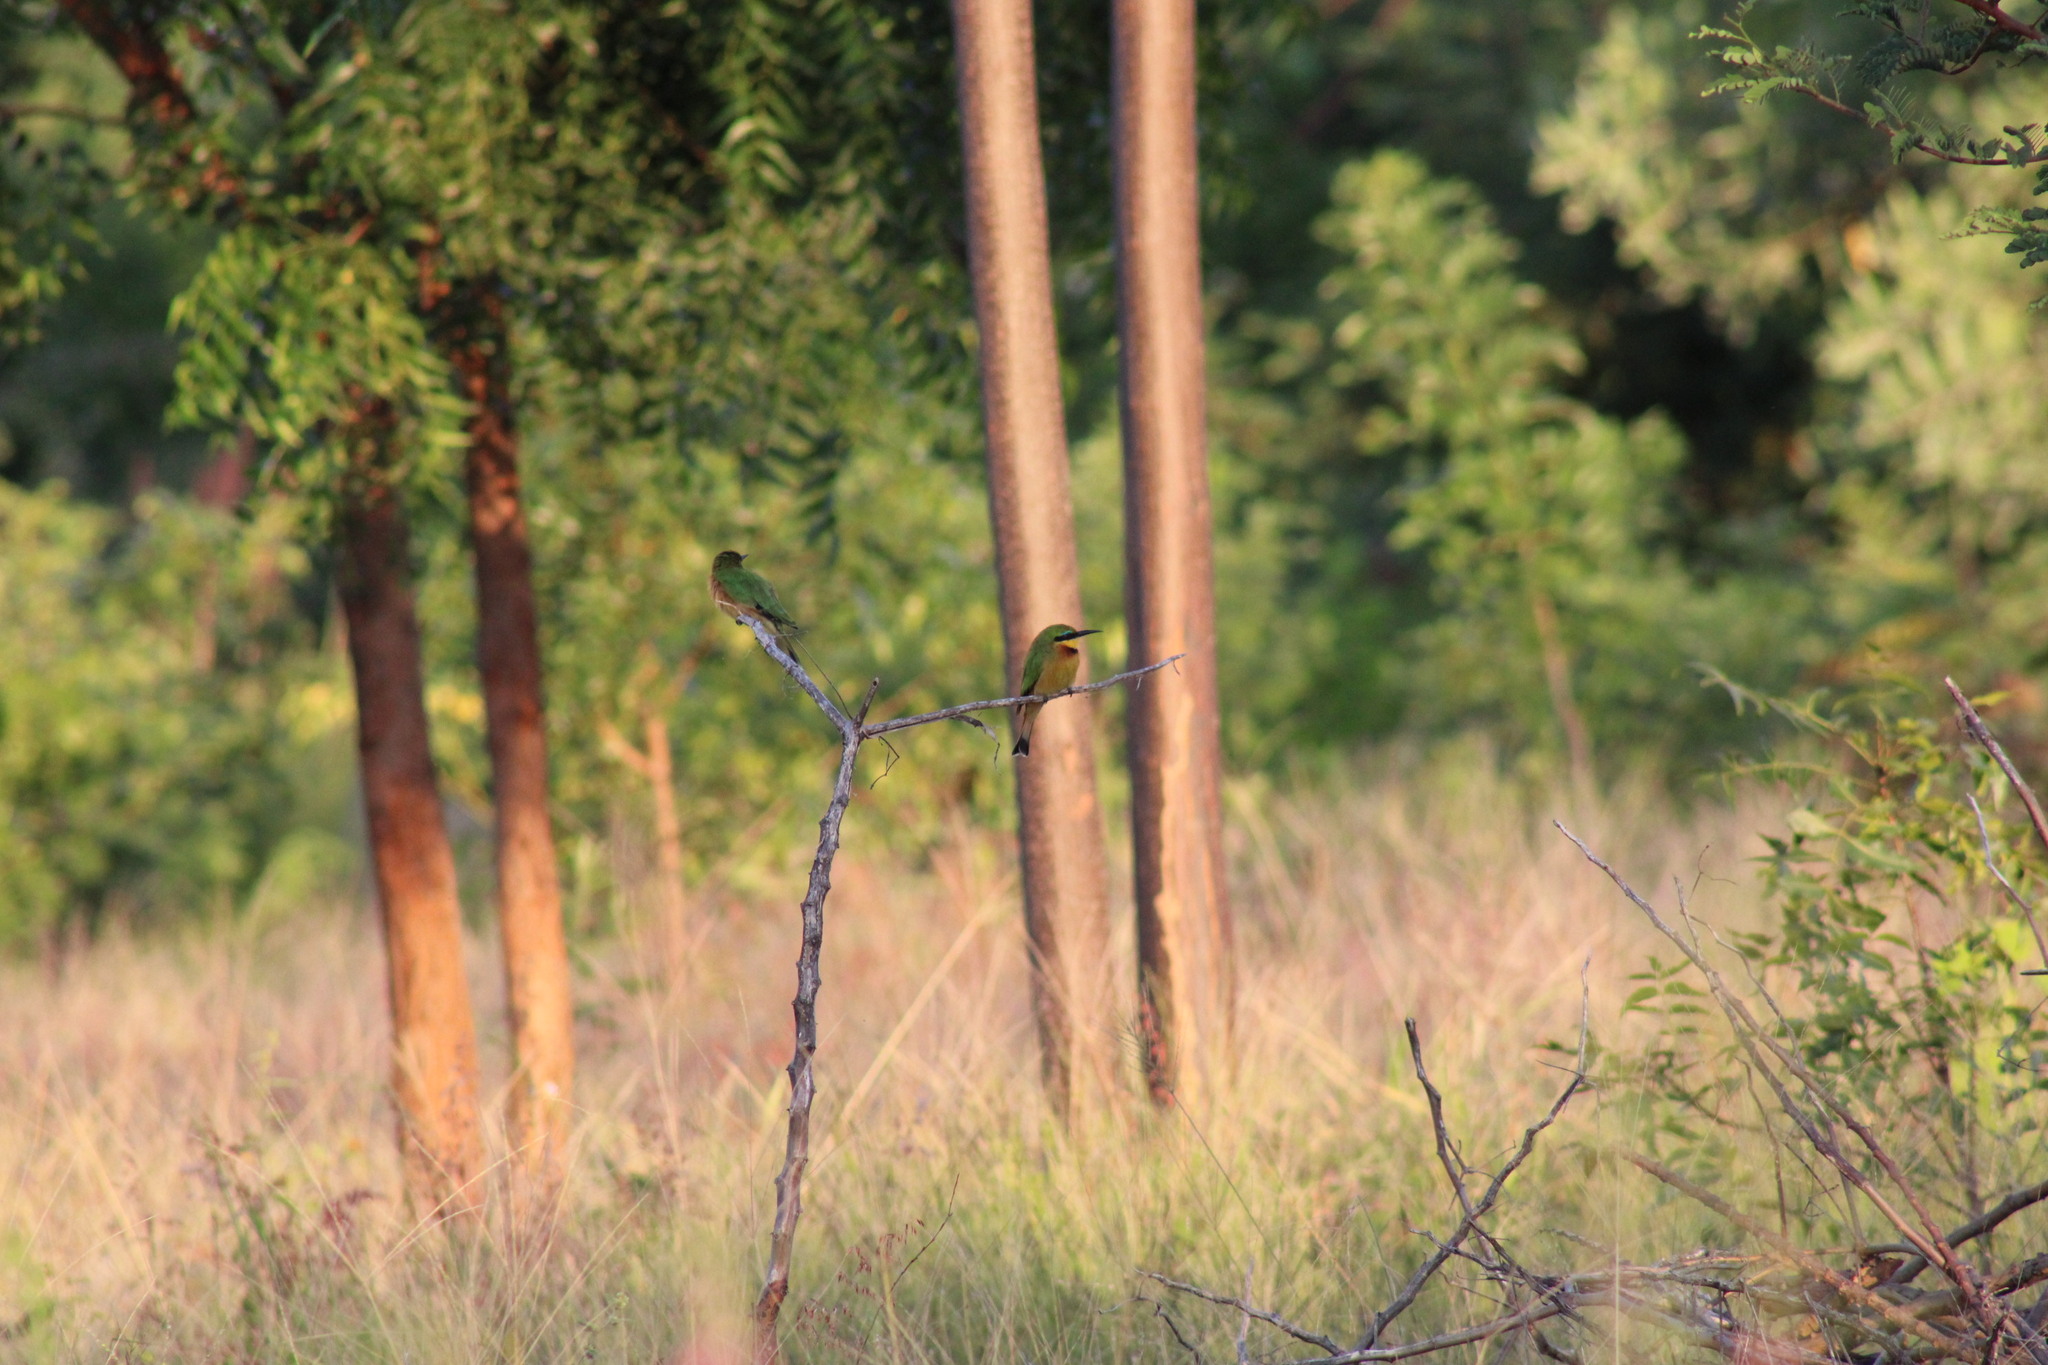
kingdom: Animalia
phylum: Chordata
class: Aves
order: Coraciiformes
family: Meropidae
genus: Merops
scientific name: Merops pusillus
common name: Little bee-eater
